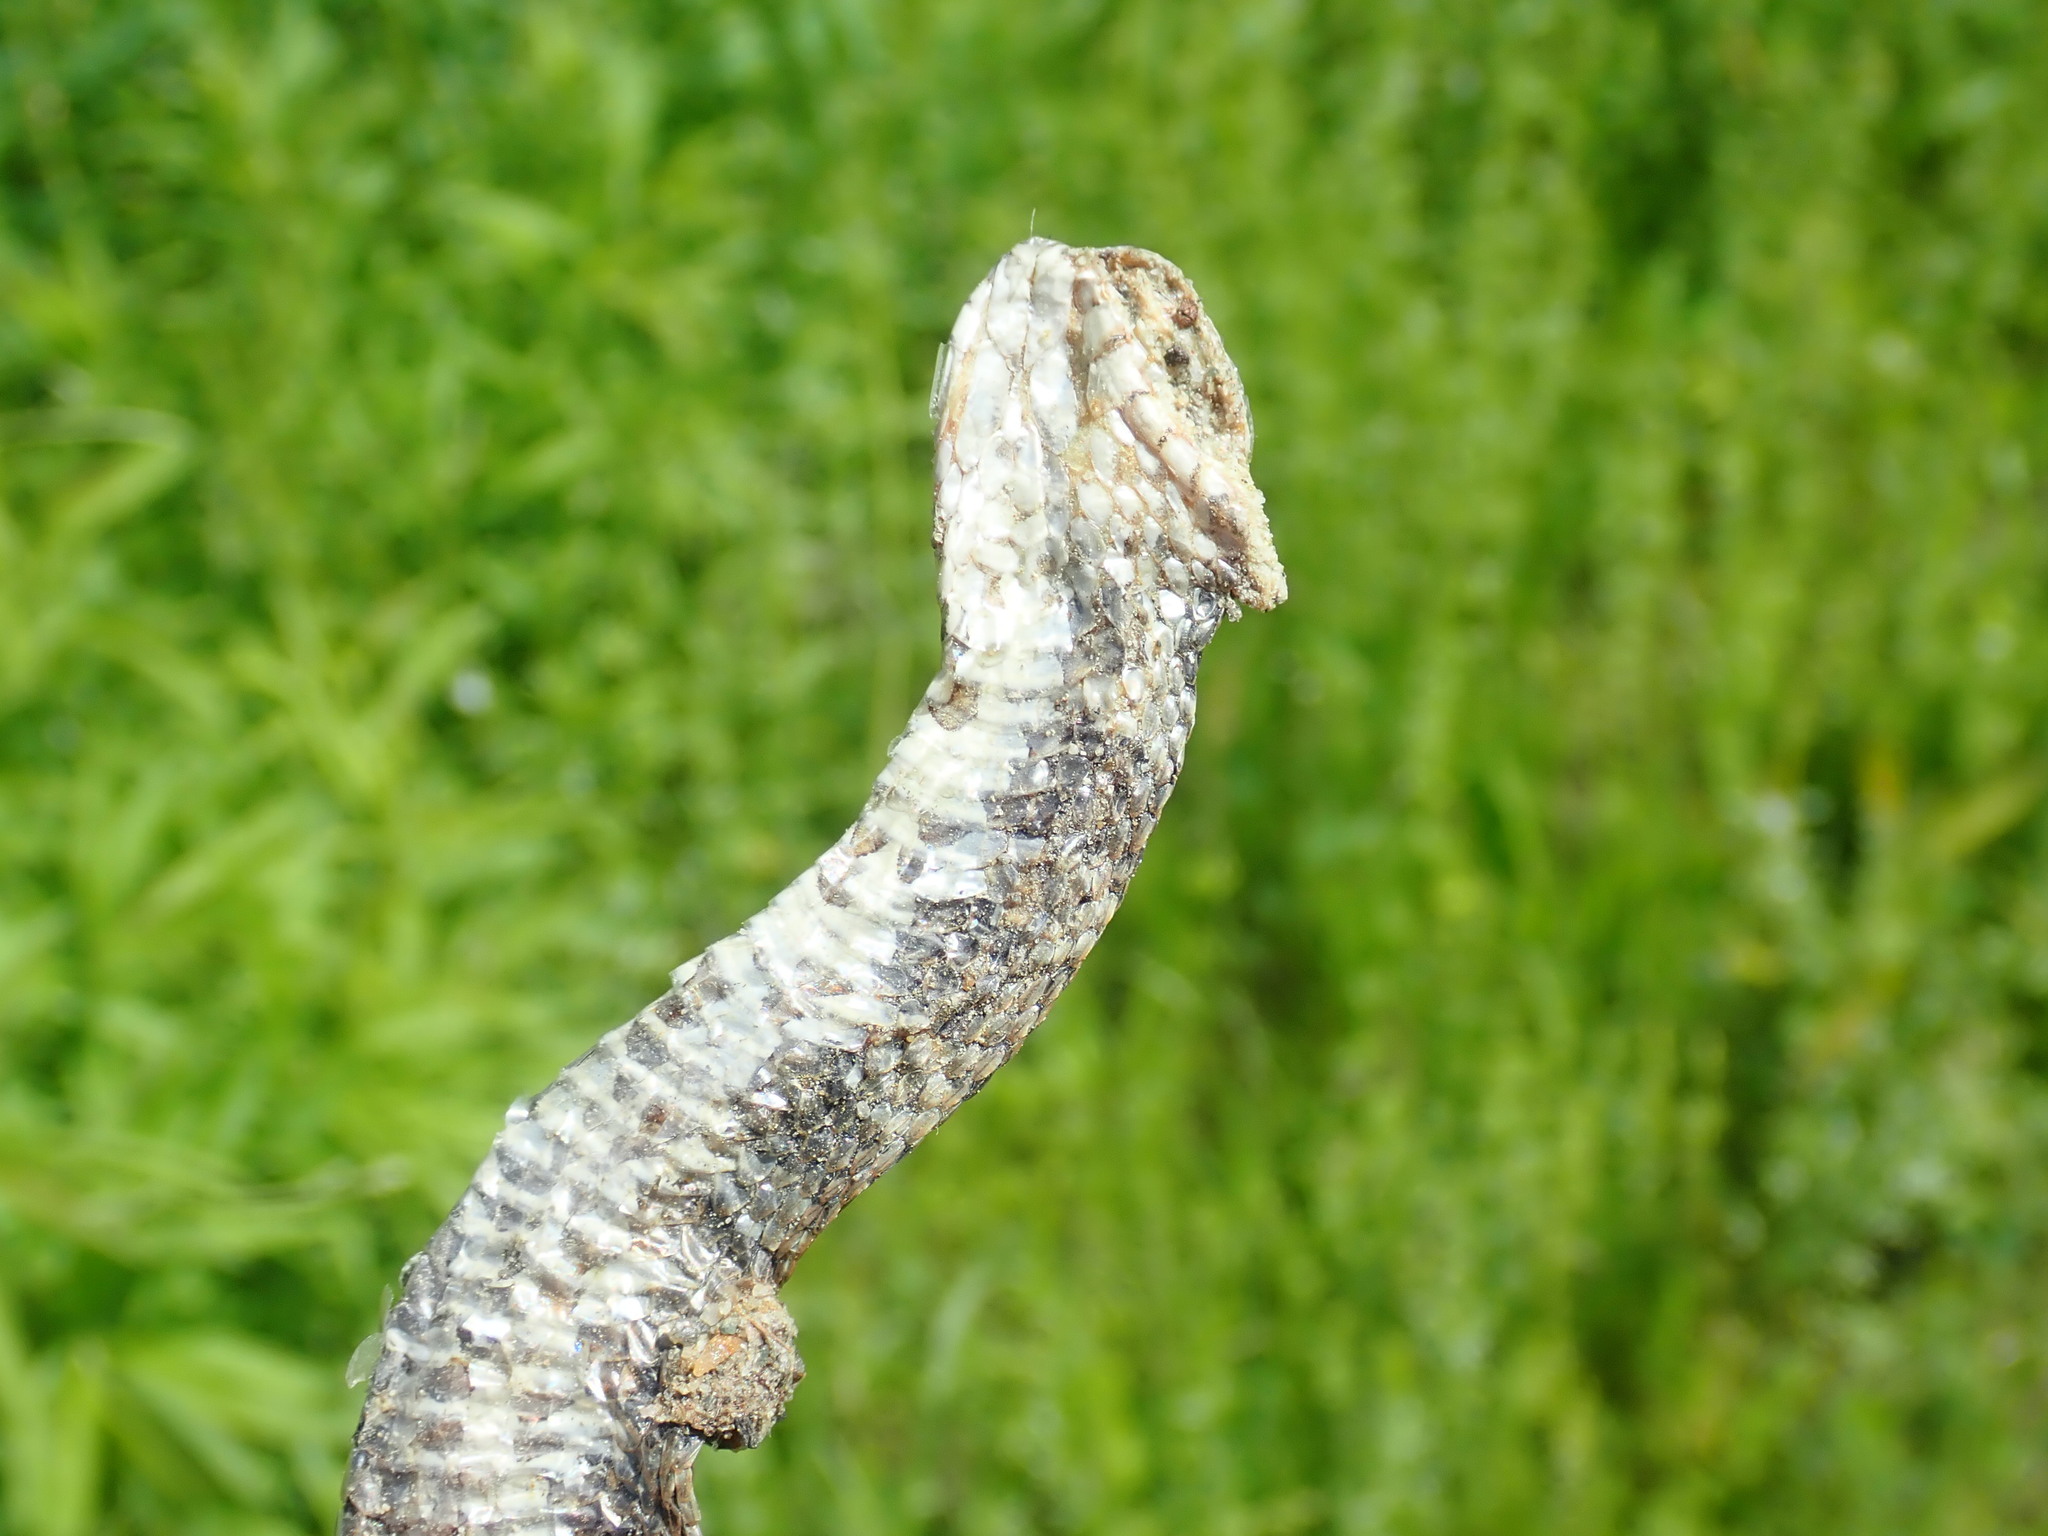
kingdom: Animalia
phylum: Chordata
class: Squamata
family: Colubridae
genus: Nerodia
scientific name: Nerodia sipedon
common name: Northern water snake
